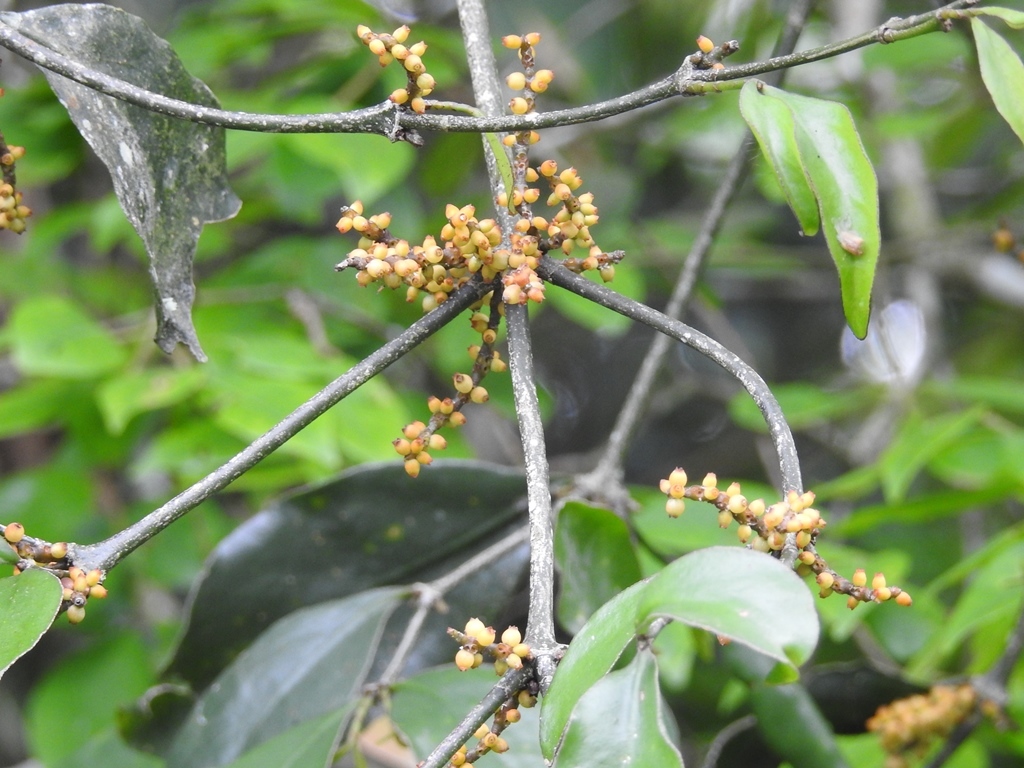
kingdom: Plantae
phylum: Tracheophyta
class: Magnoliopsida
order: Santalales
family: Viscaceae
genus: Phoradendron
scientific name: Phoradendron aurantiacum
